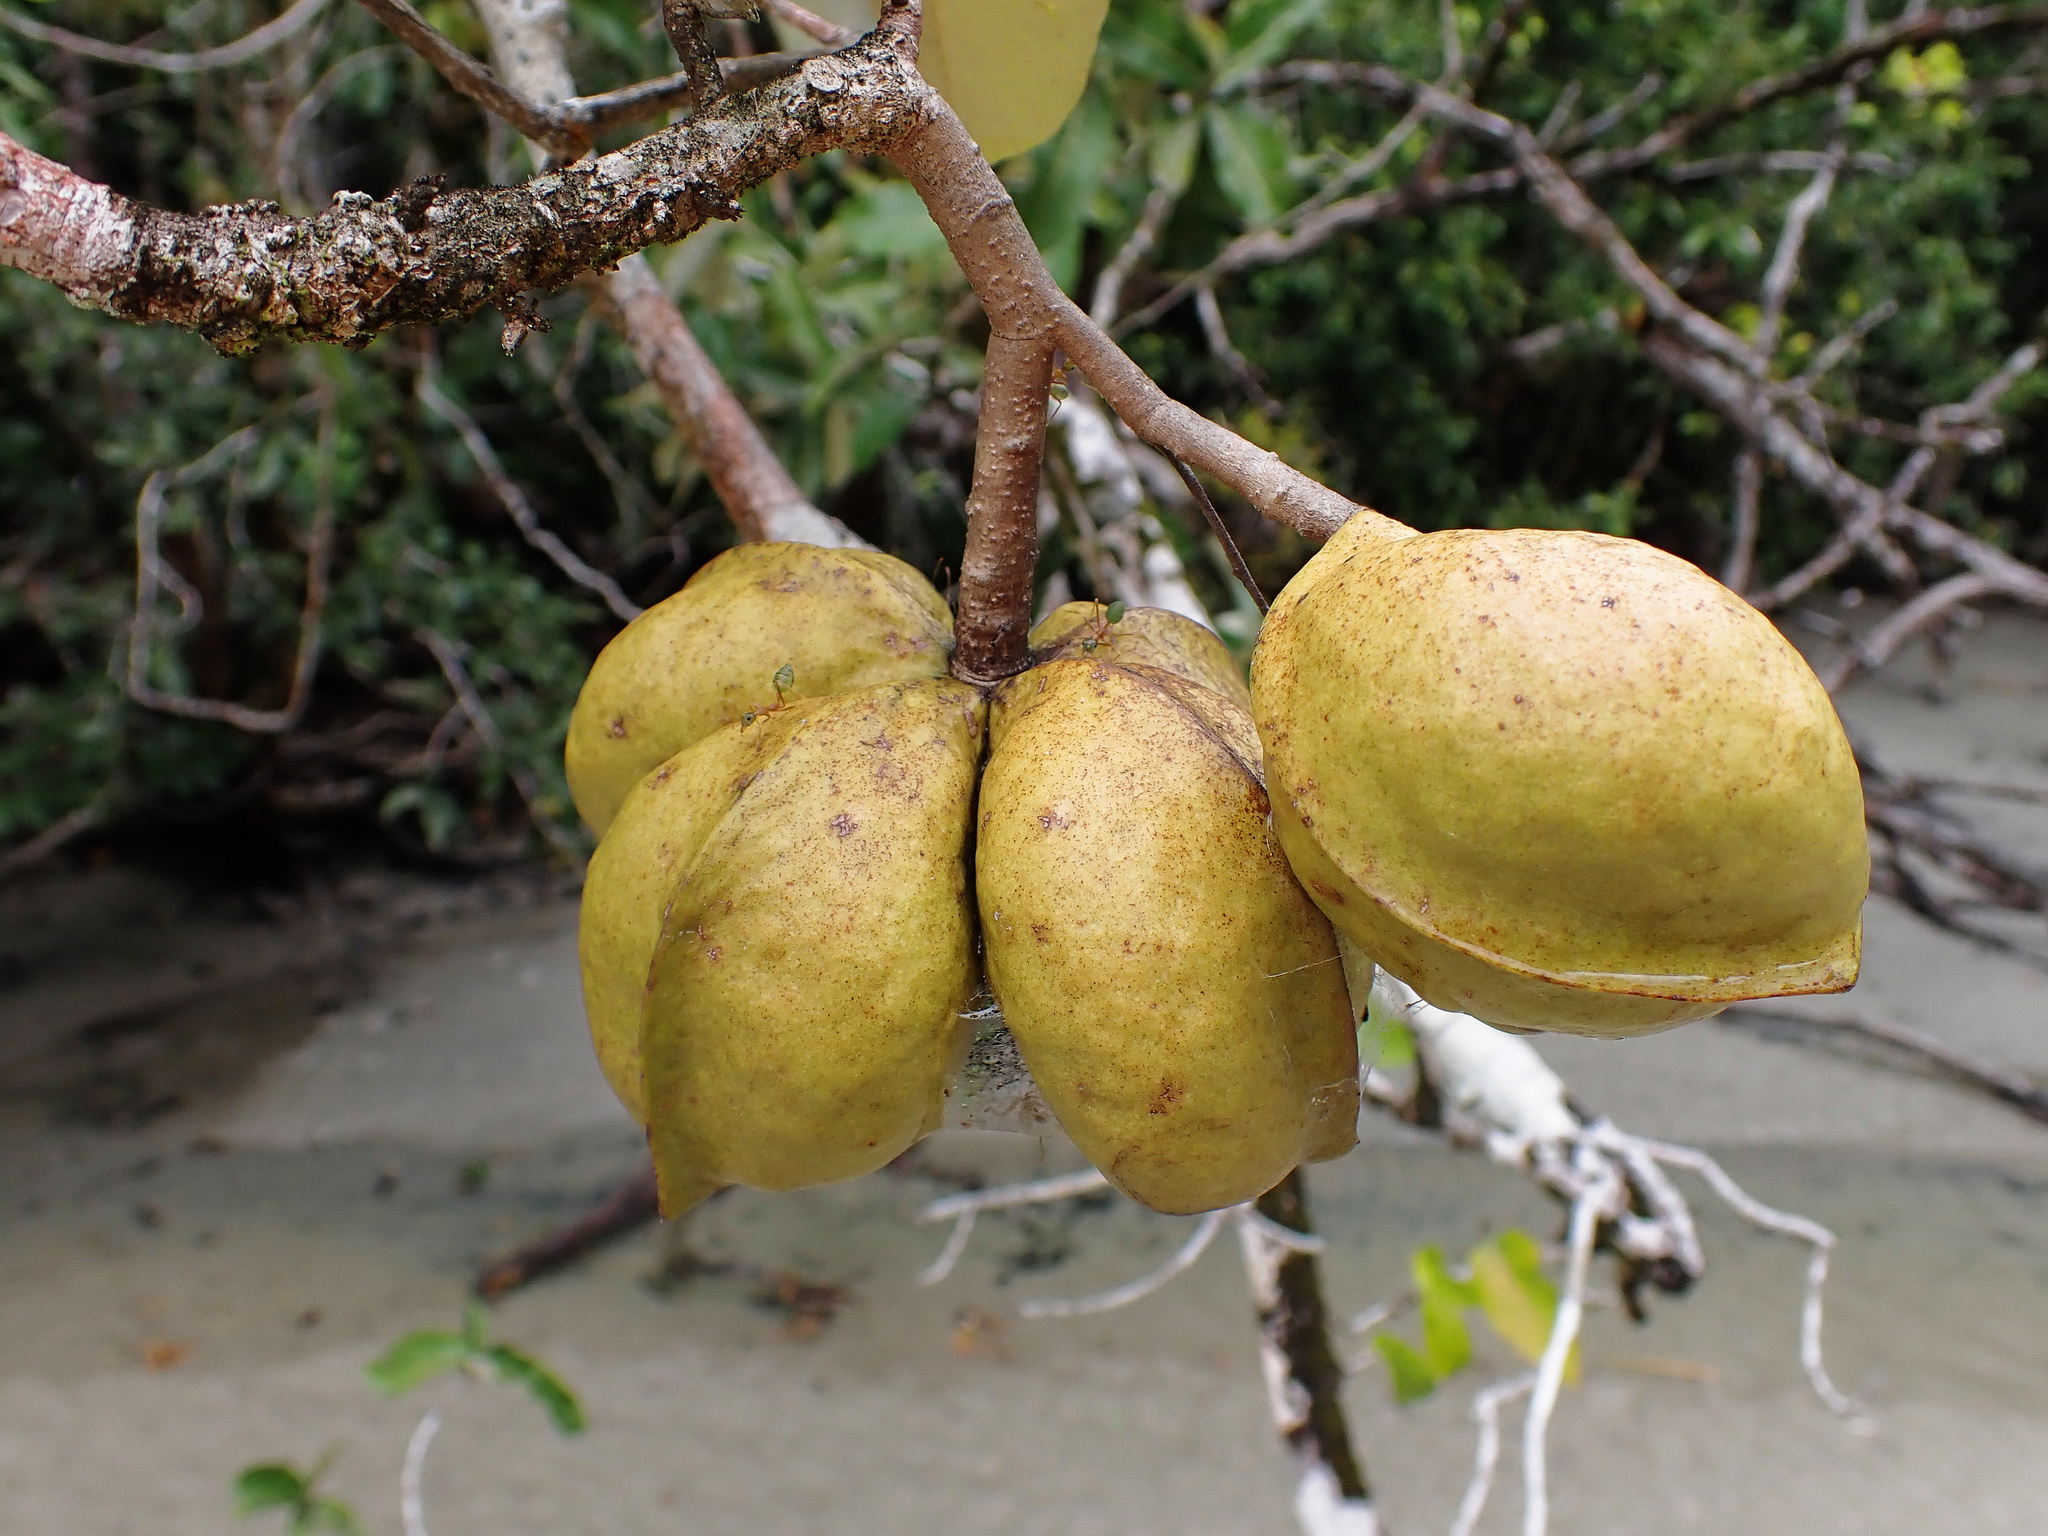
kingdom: Plantae
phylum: Tracheophyta
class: Magnoliopsida
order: Malvales
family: Malvaceae
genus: Heritiera
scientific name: Heritiera littoralis
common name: Looking-glass mangrove
